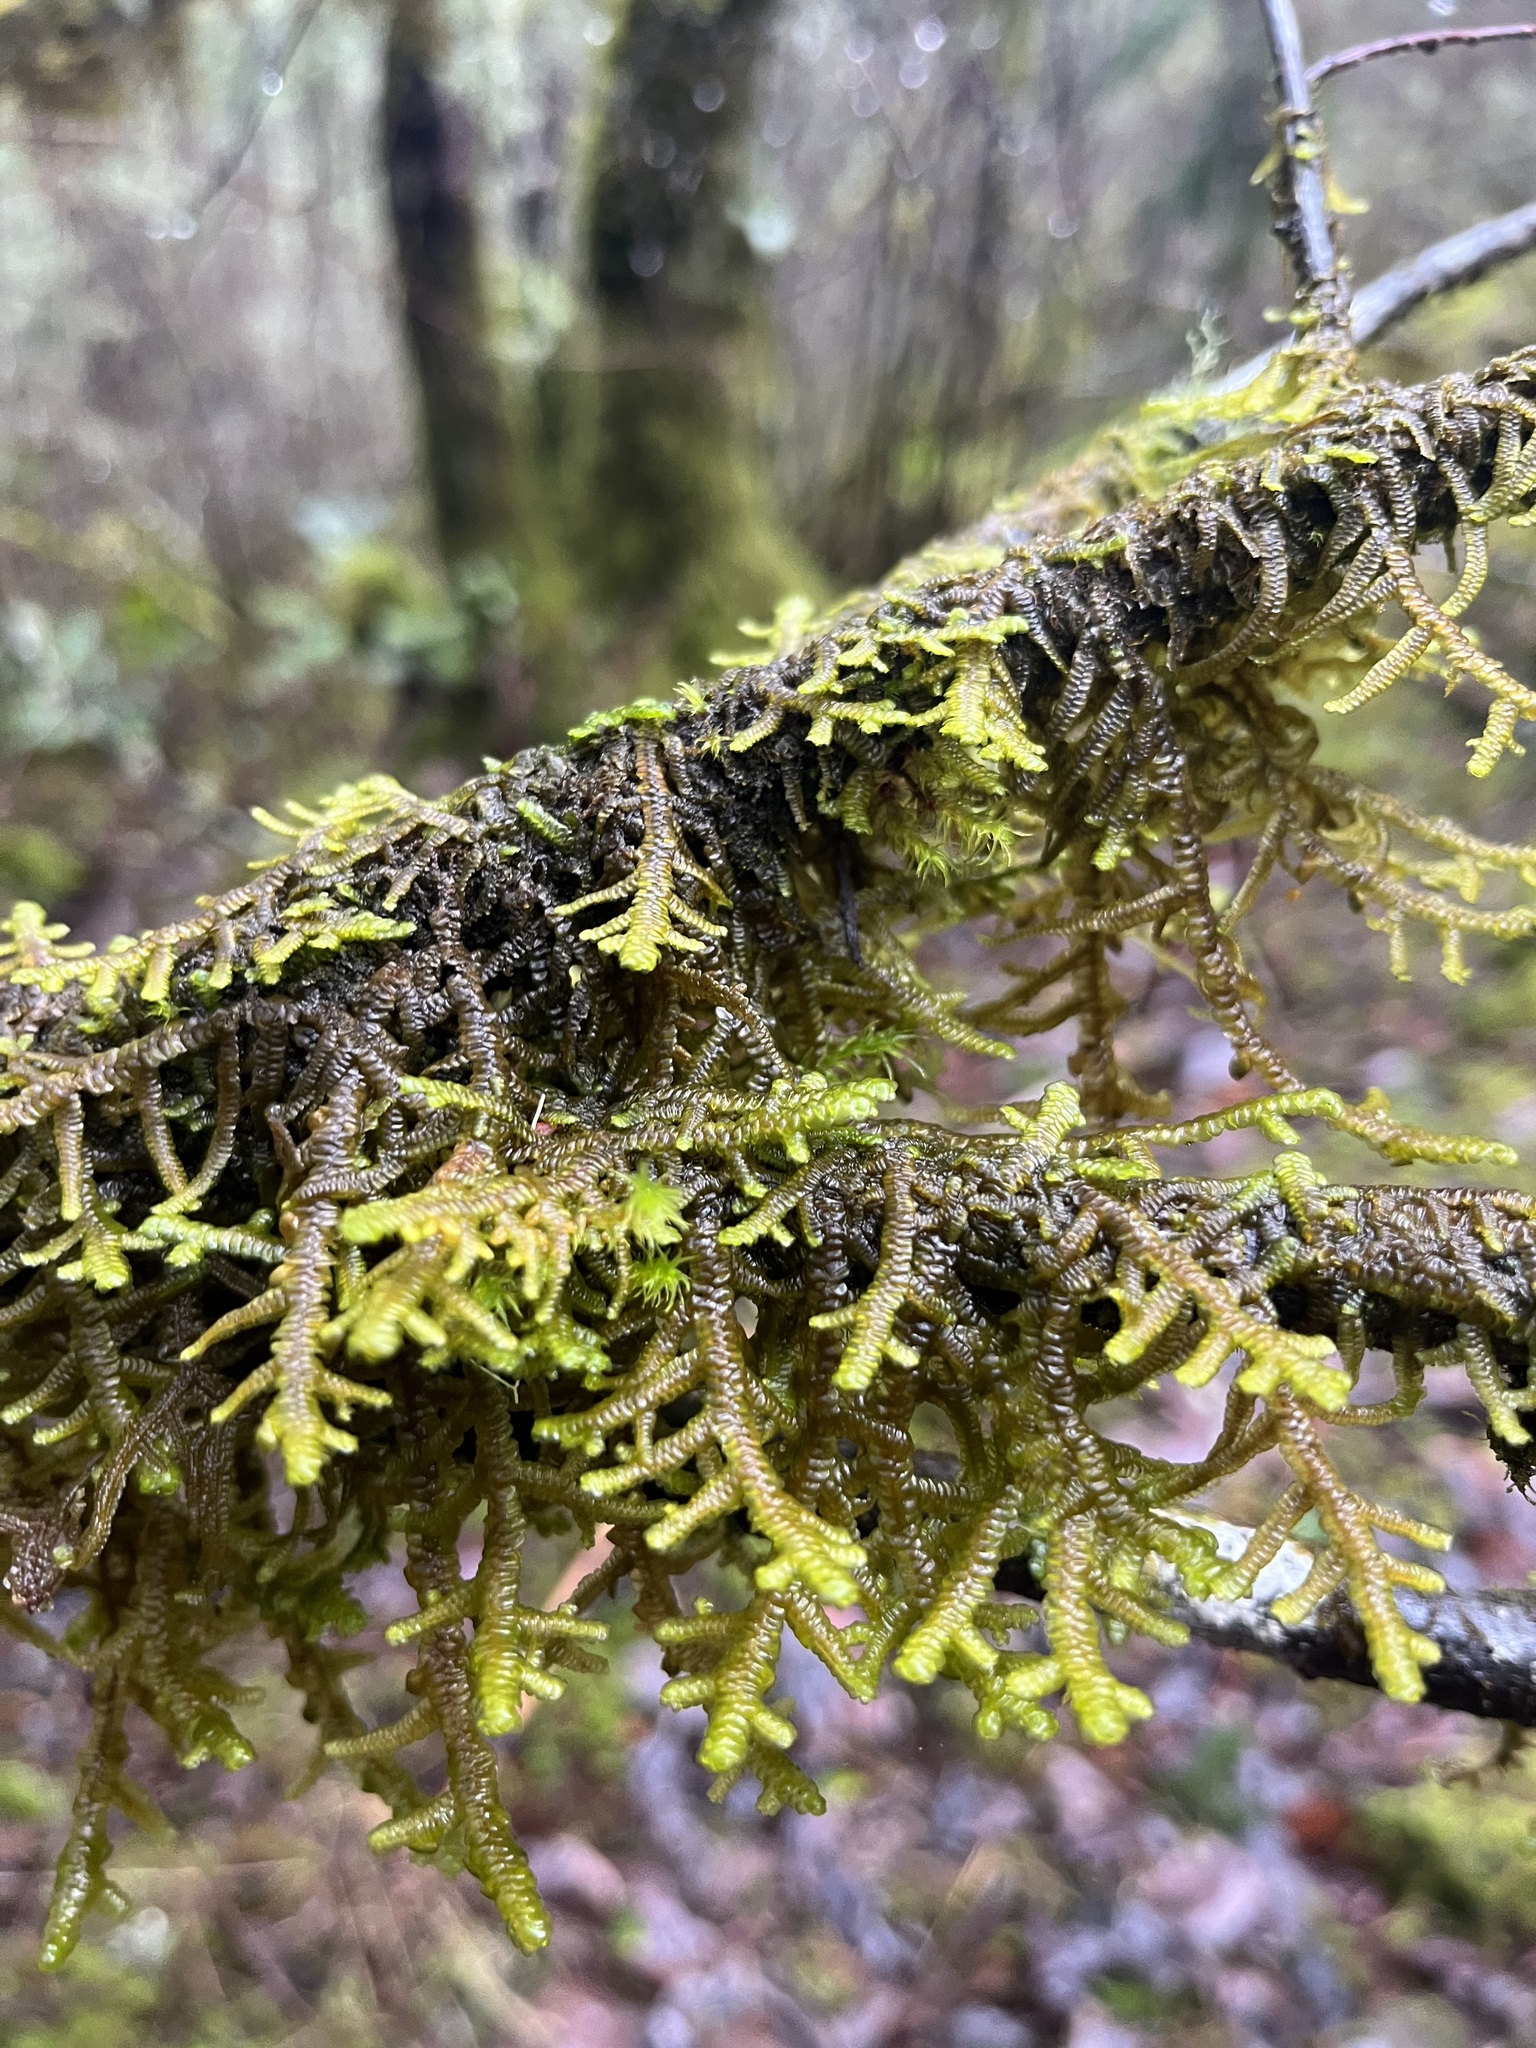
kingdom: Plantae
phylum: Marchantiophyta
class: Jungermanniopsida
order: Porellales
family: Porellaceae
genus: Porella
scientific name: Porella navicularis
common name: Tree ruffle liverwort
